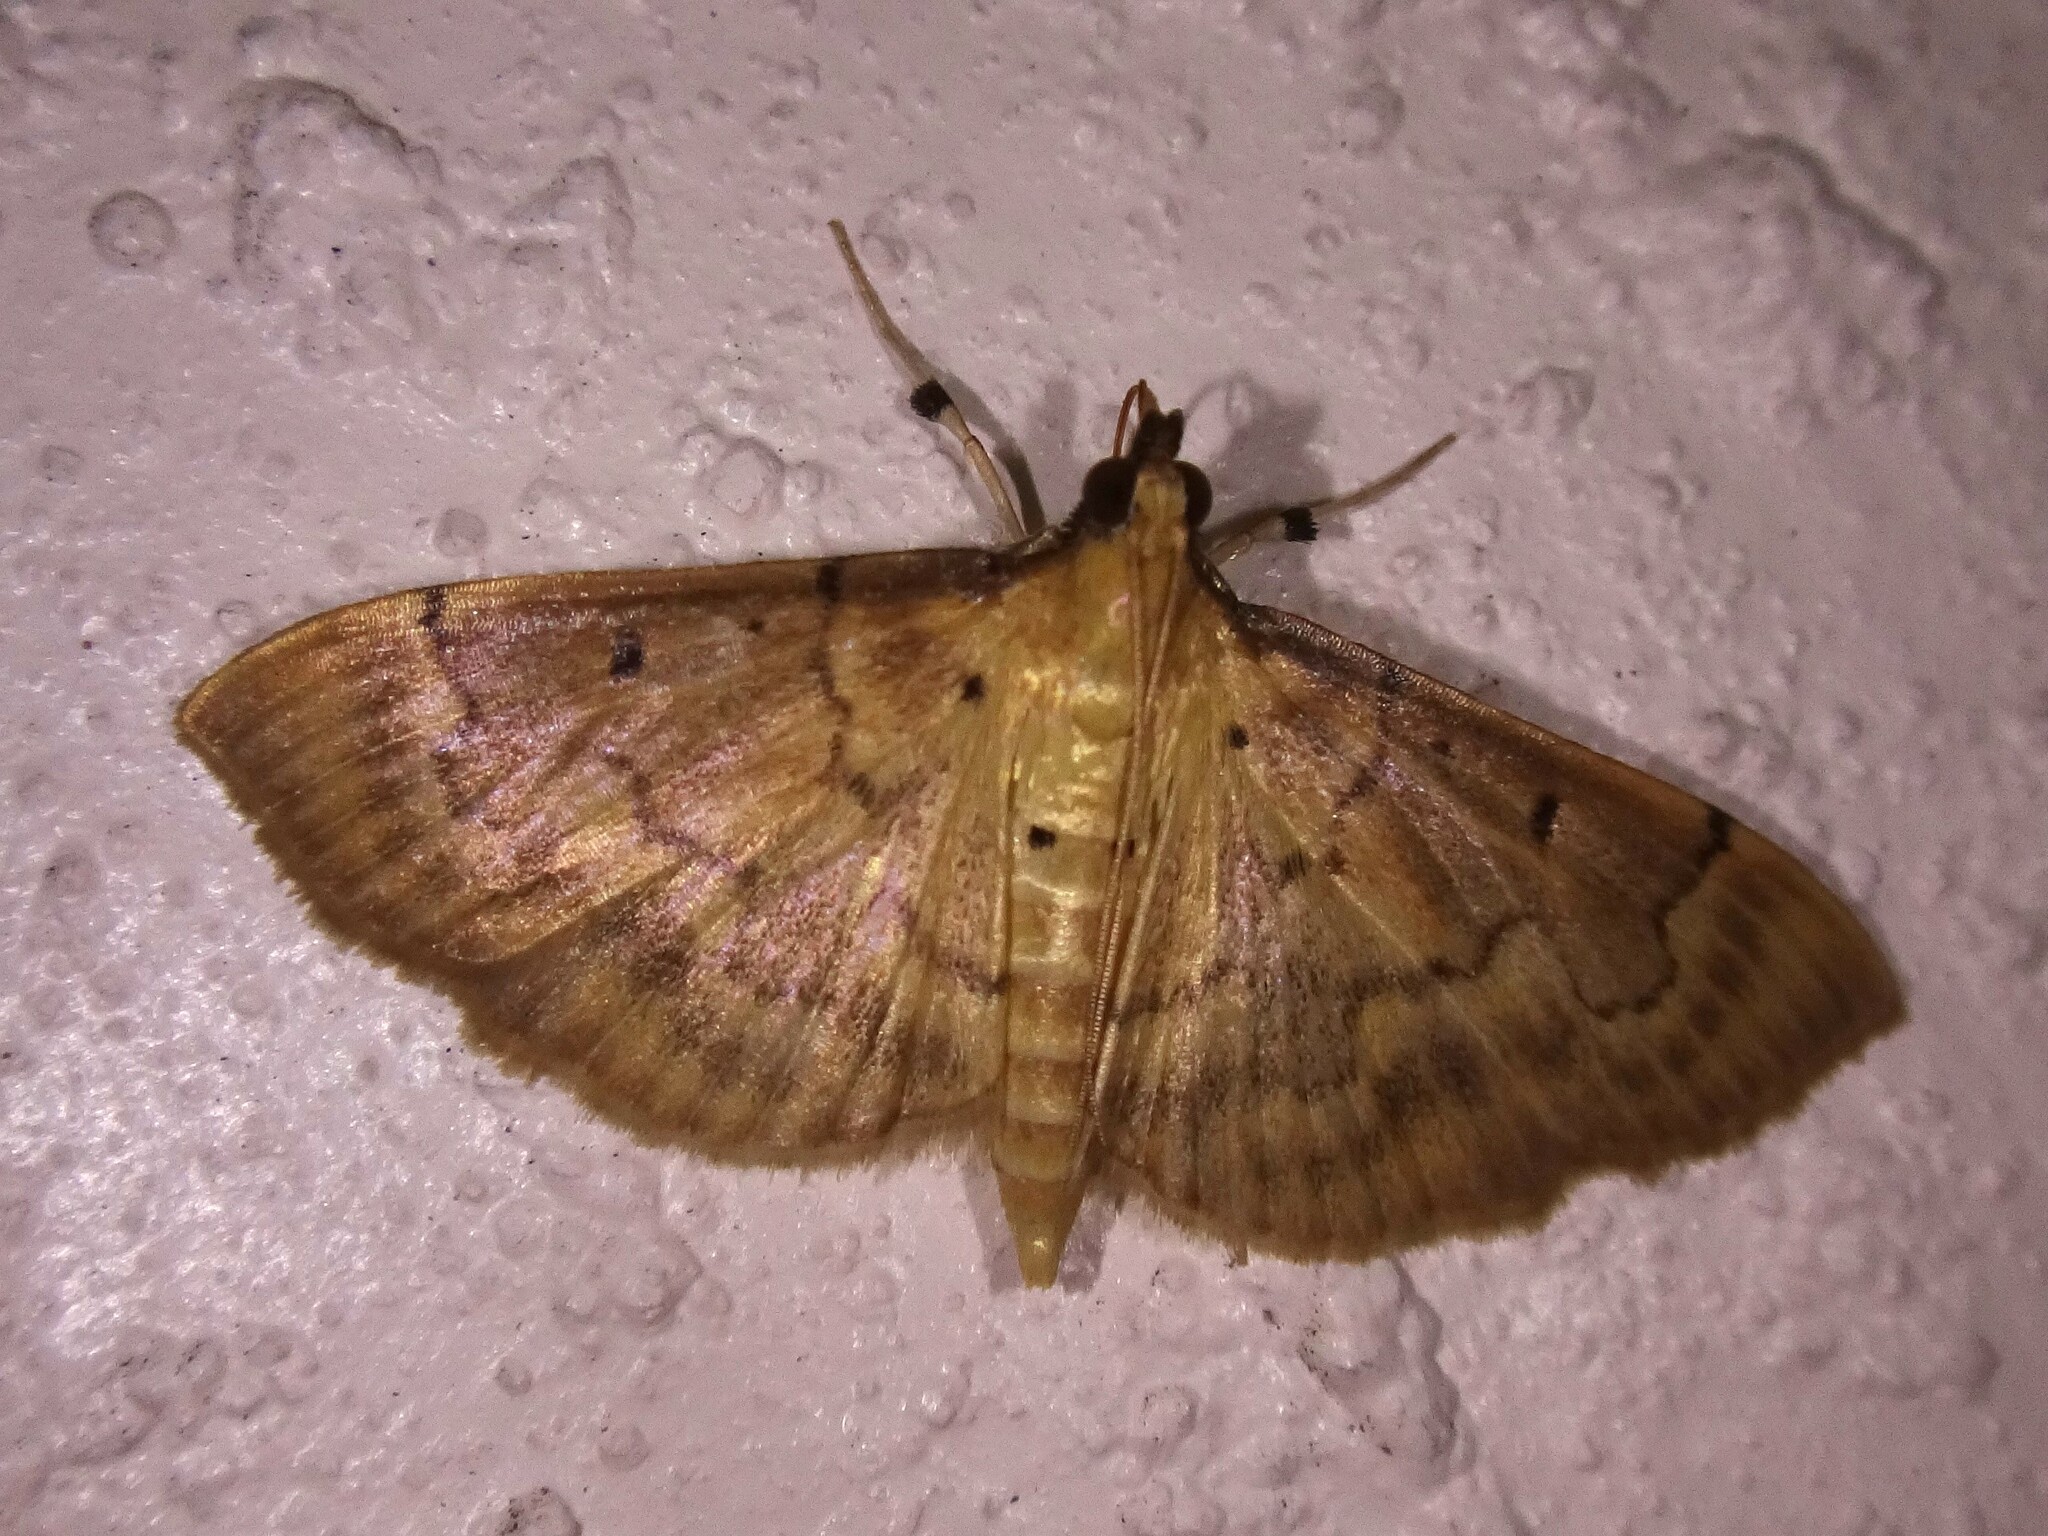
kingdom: Animalia
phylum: Arthropoda
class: Insecta
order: Lepidoptera
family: Crambidae
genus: Herpetogramma
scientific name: Herpetogramma
